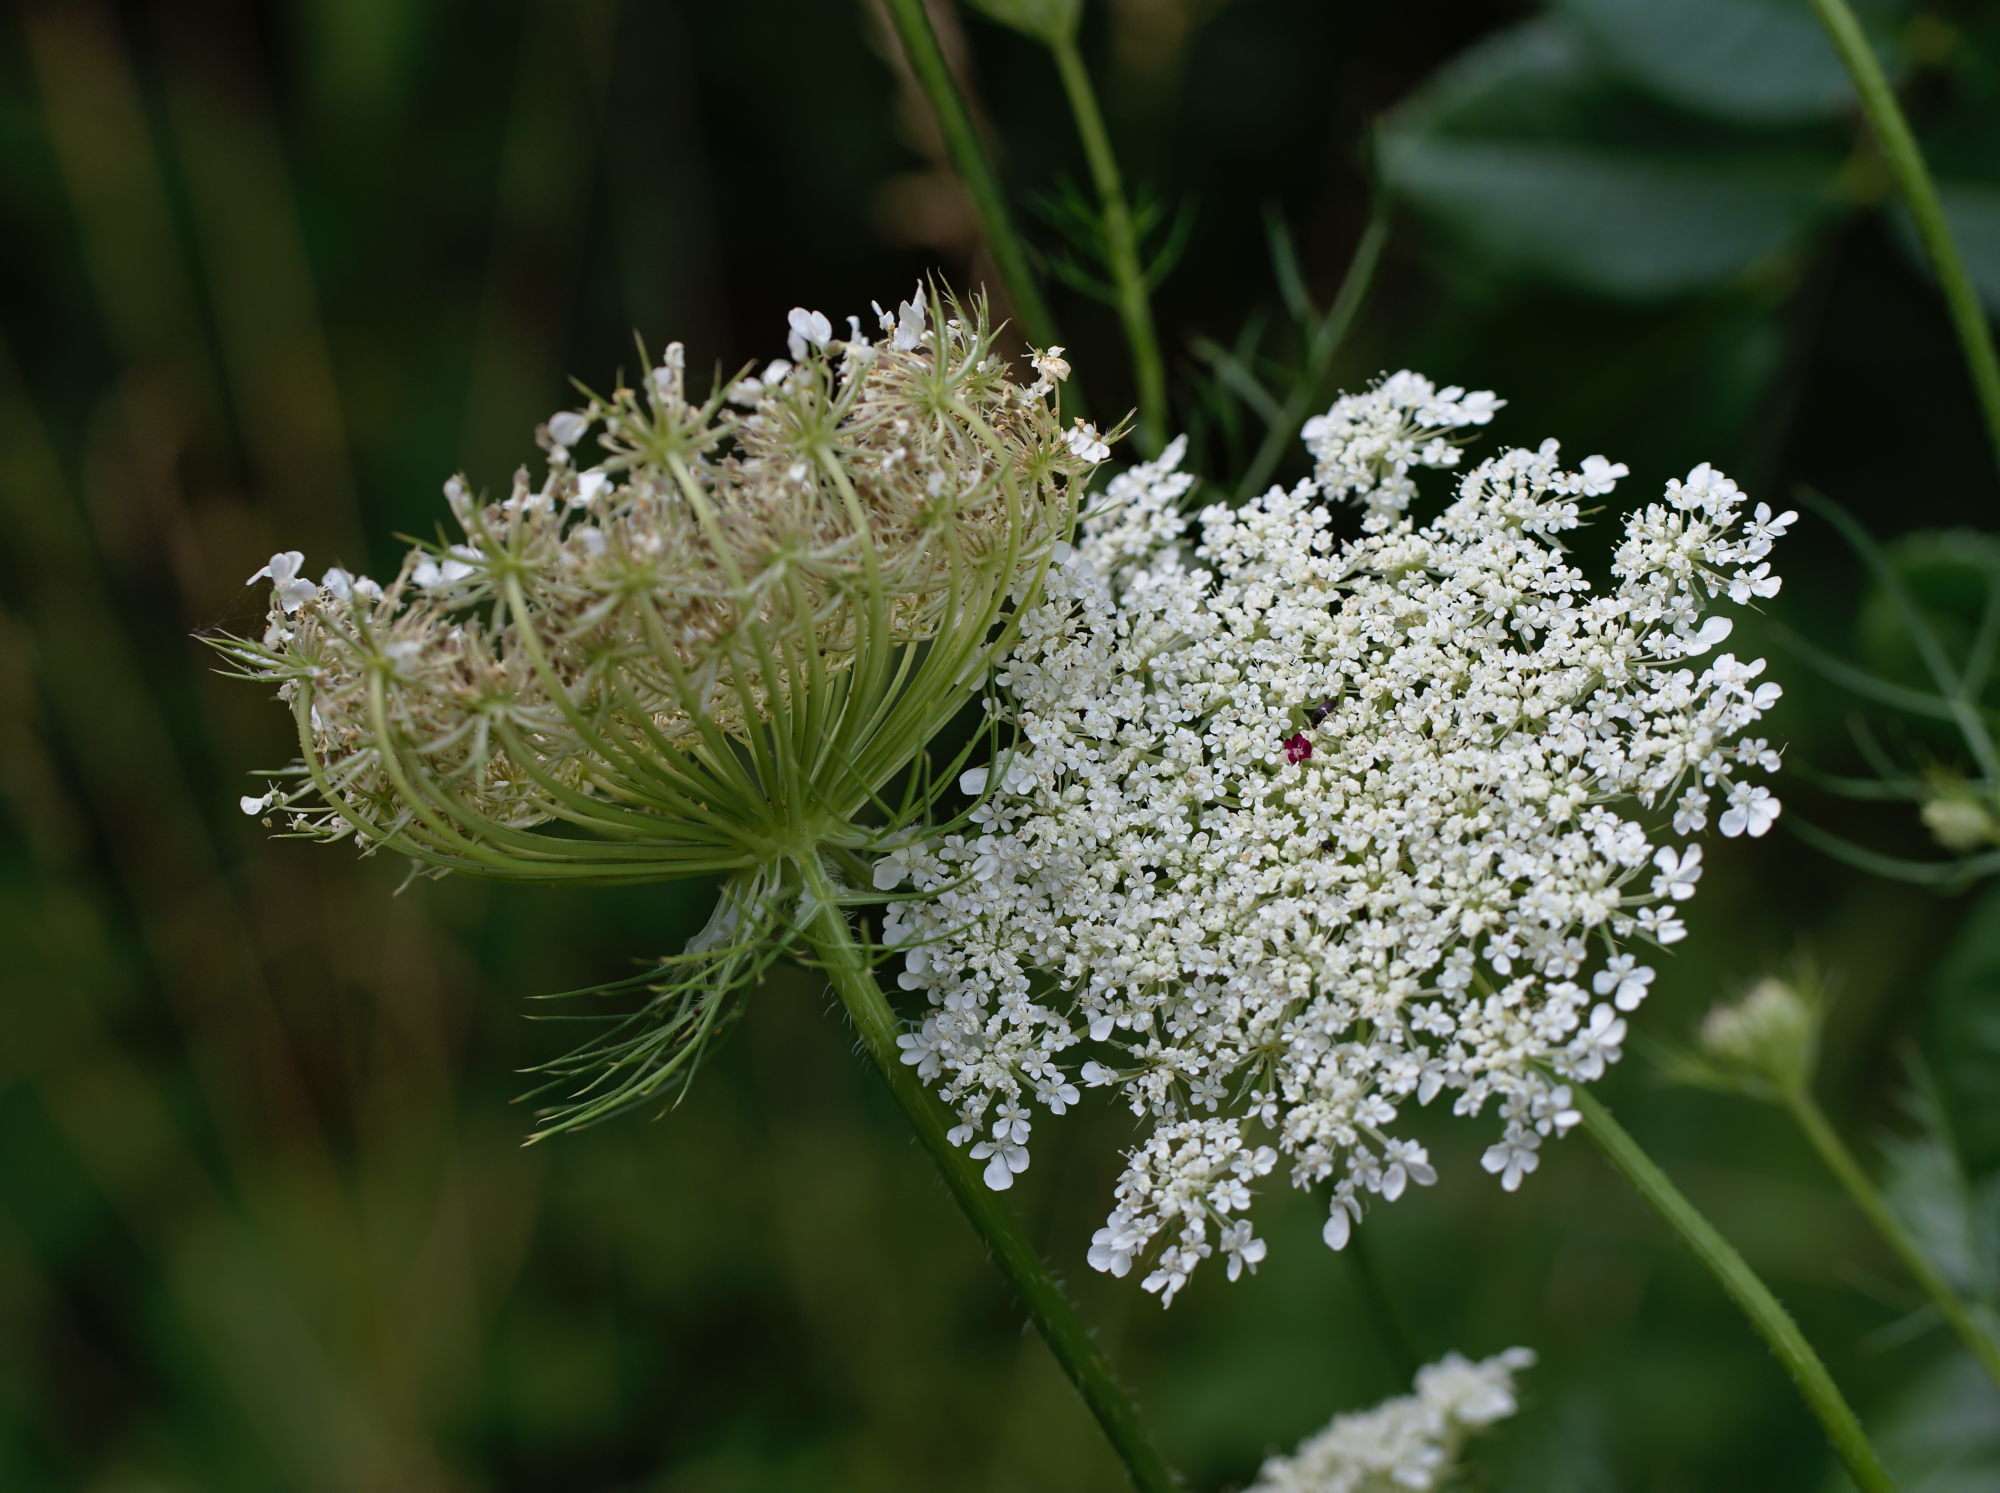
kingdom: Plantae
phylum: Tracheophyta
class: Magnoliopsida
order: Apiales
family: Apiaceae
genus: Daucus
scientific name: Daucus carota
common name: Wild carrot
